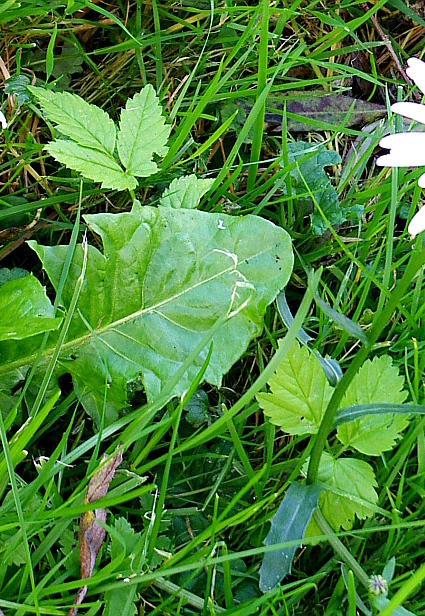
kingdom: Plantae
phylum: Tracheophyta
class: Magnoliopsida
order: Apiales
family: Apiaceae
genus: Aegopodium
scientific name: Aegopodium podagraria
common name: Ground-elder
